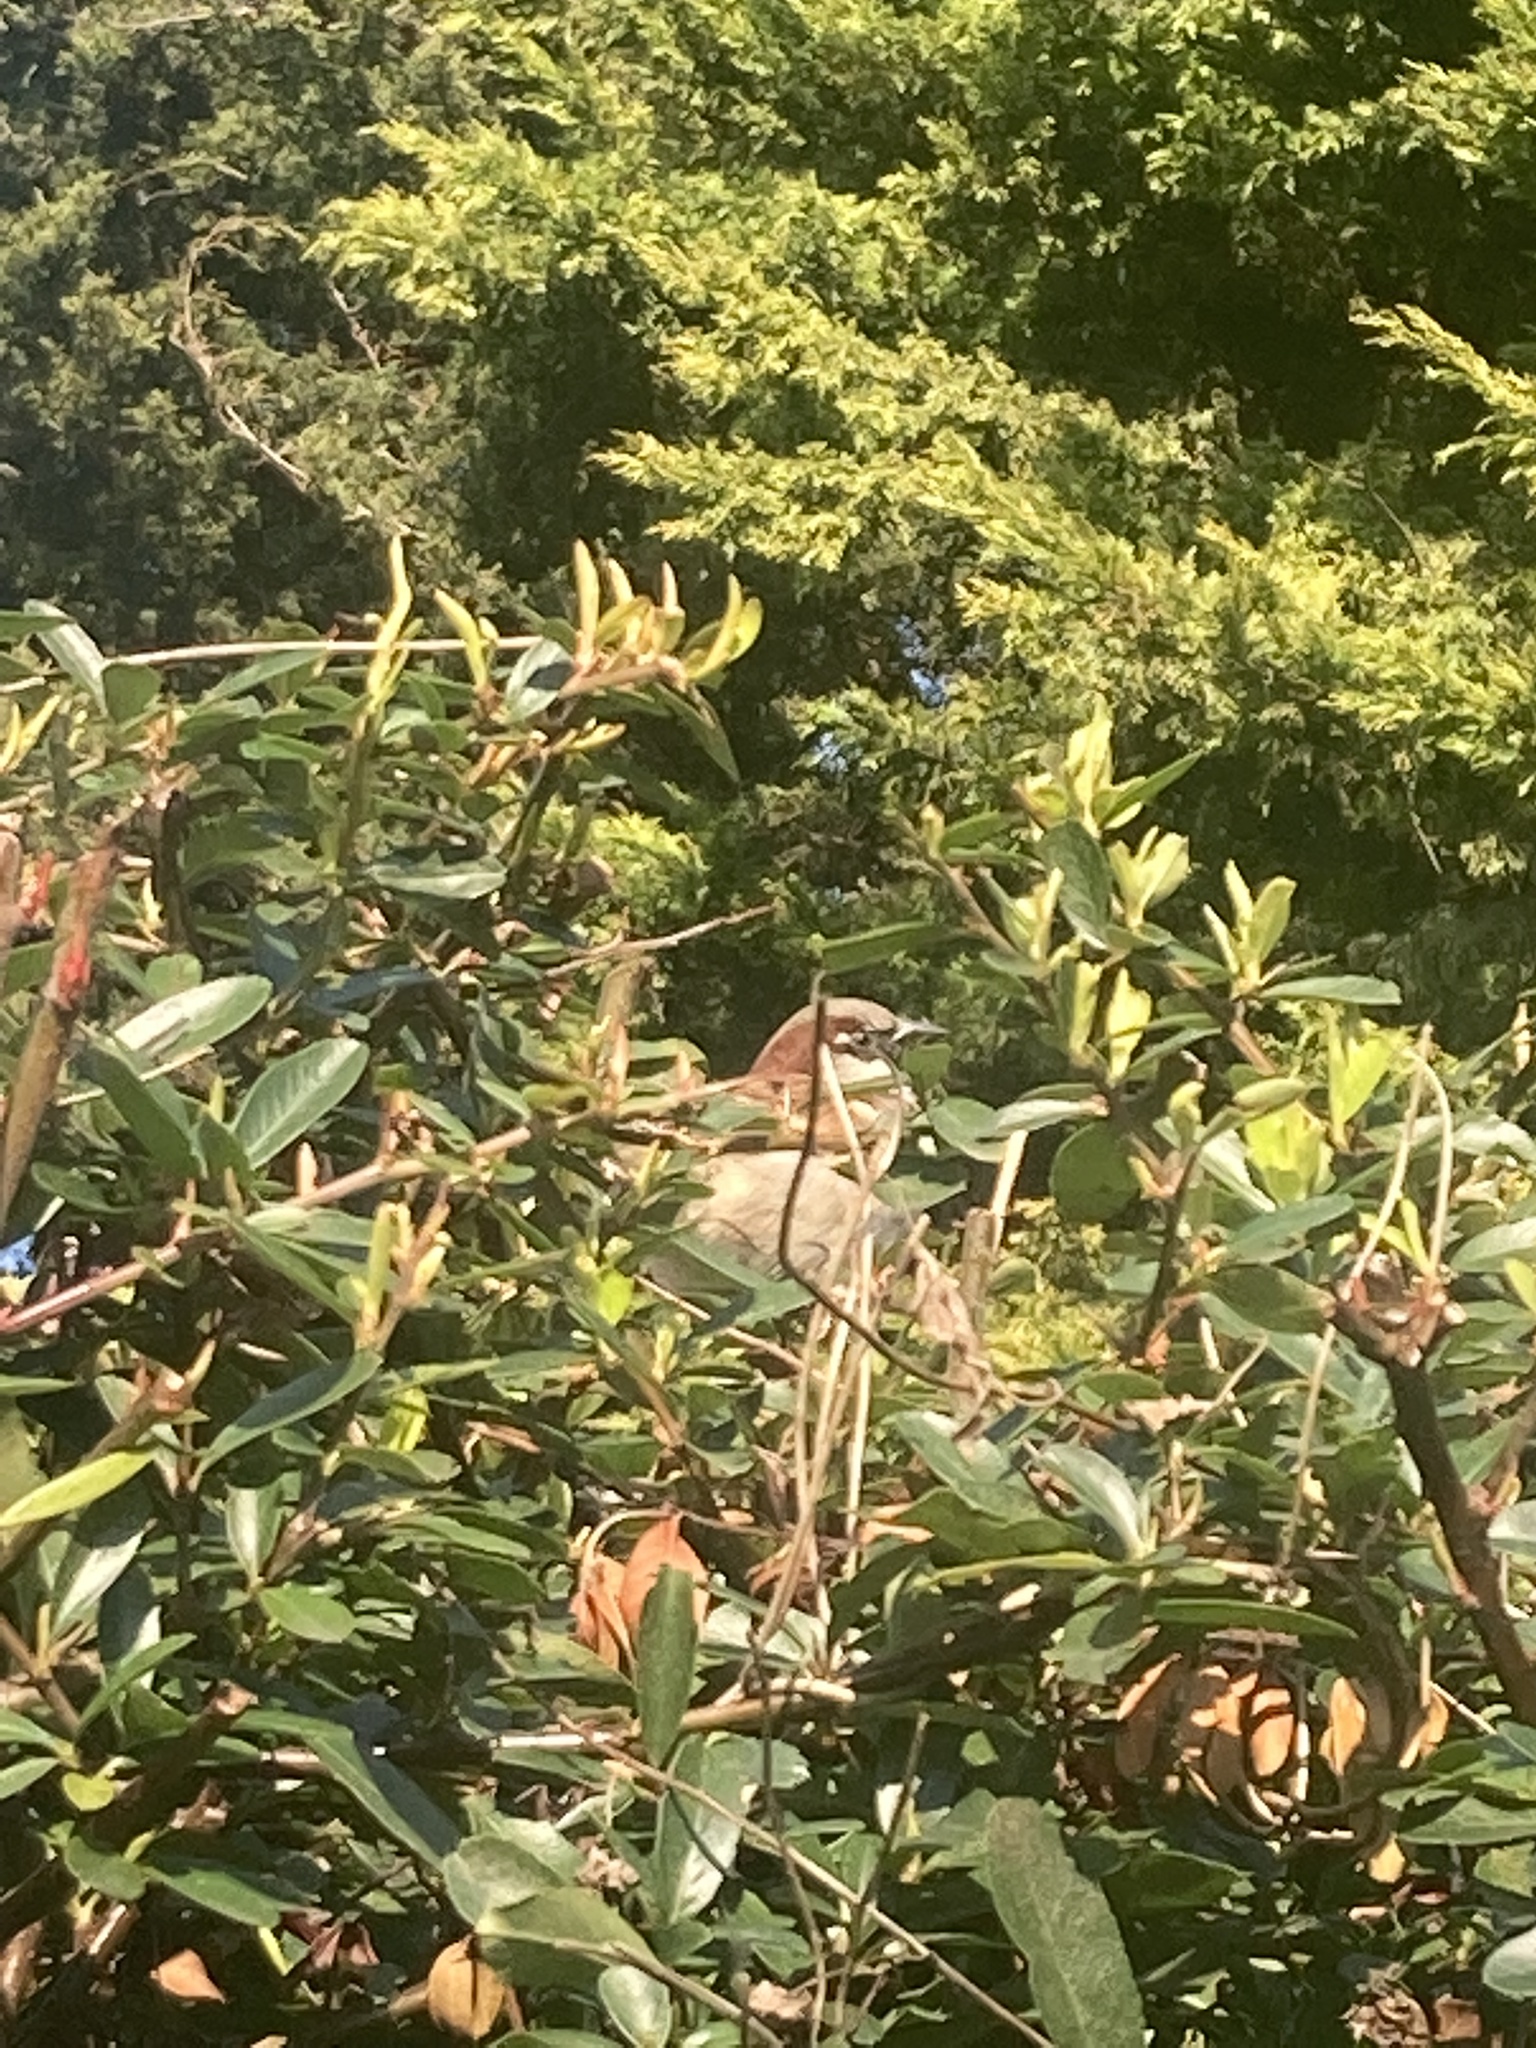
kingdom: Animalia
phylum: Chordata
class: Aves
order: Passeriformes
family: Passeridae
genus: Passer
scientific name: Passer domesticus
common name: House sparrow
